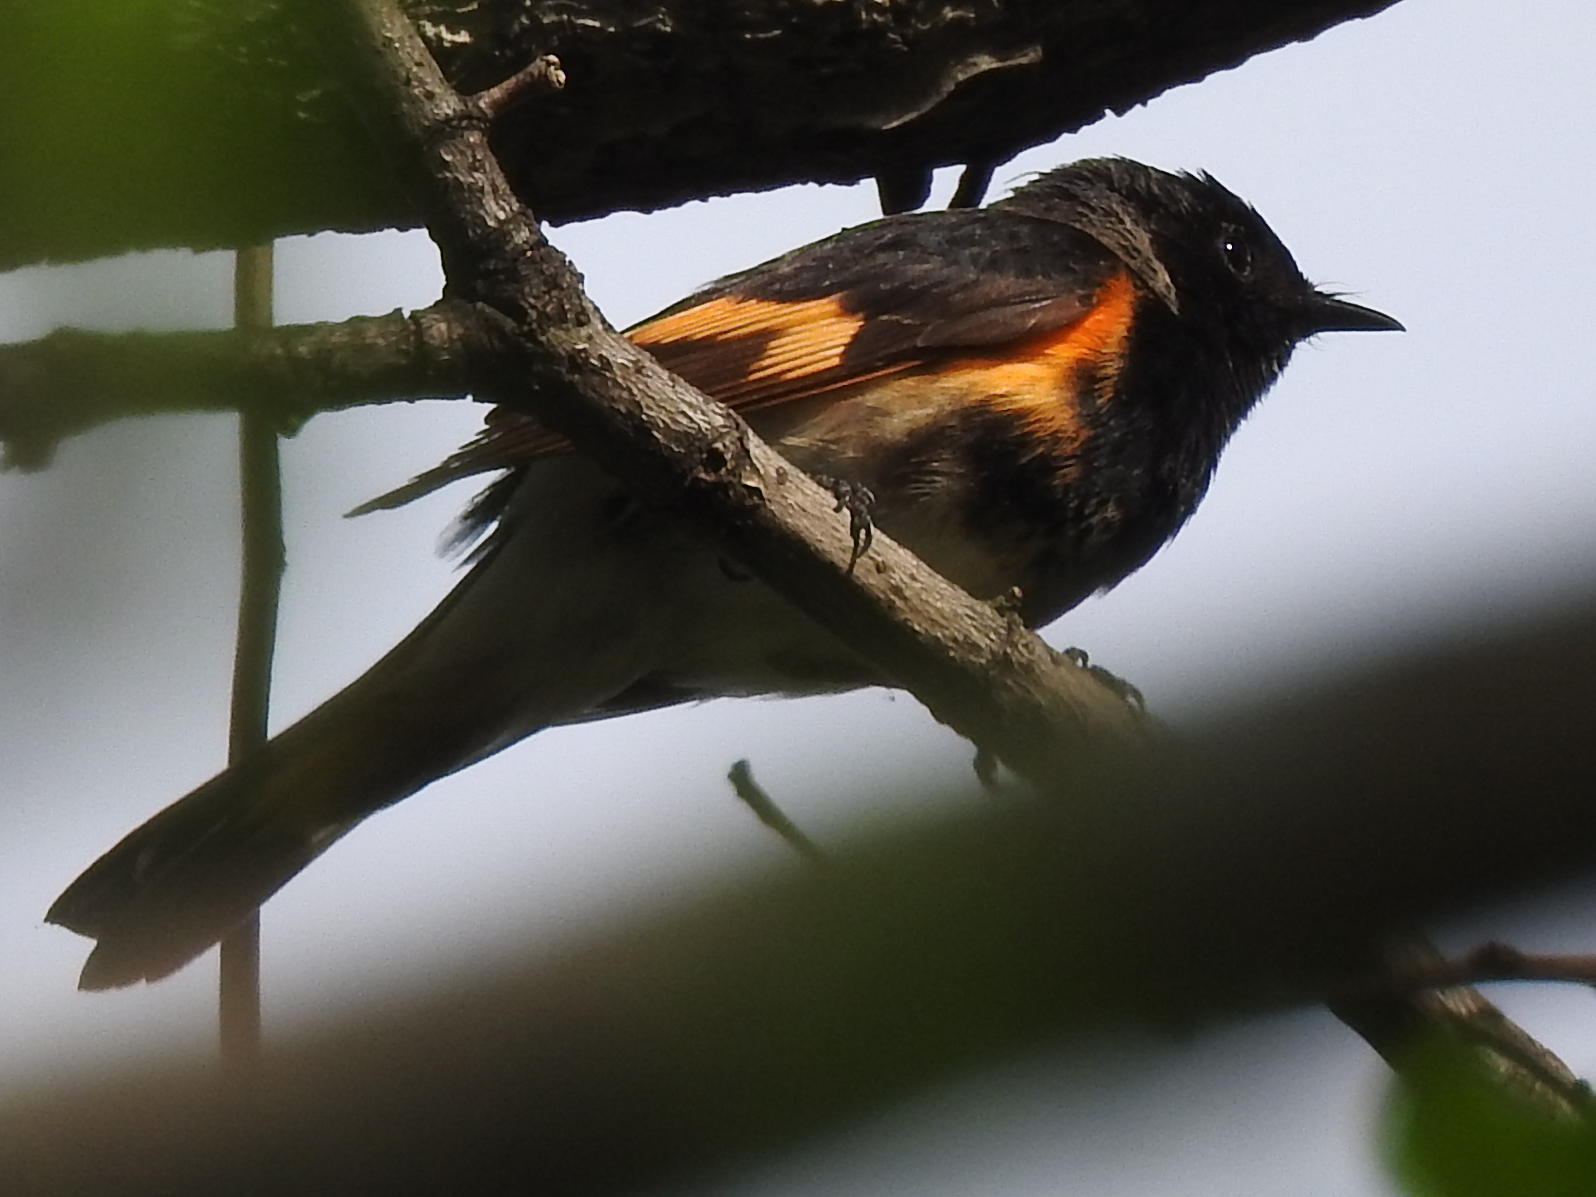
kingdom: Animalia
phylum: Chordata
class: Aves
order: Passeriformes
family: Parulidae
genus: Setophaga
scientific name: Setophaga ruticilla
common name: American redstart
